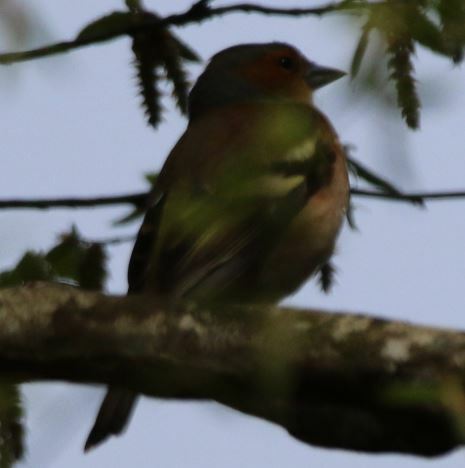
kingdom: Animalia
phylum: Chordata
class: Aves
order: Passeriformes
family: Fringillidae
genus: Fringilla
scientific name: Fringilla coelebs
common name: Common chaffinch
